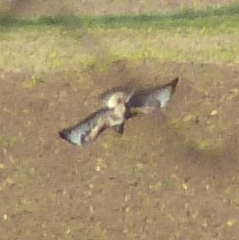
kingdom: Animalia
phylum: Chordata
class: Aves
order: Accipitriformes
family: Accipitridae
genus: Buteo
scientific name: Buteo buteo
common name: Common buzzard
